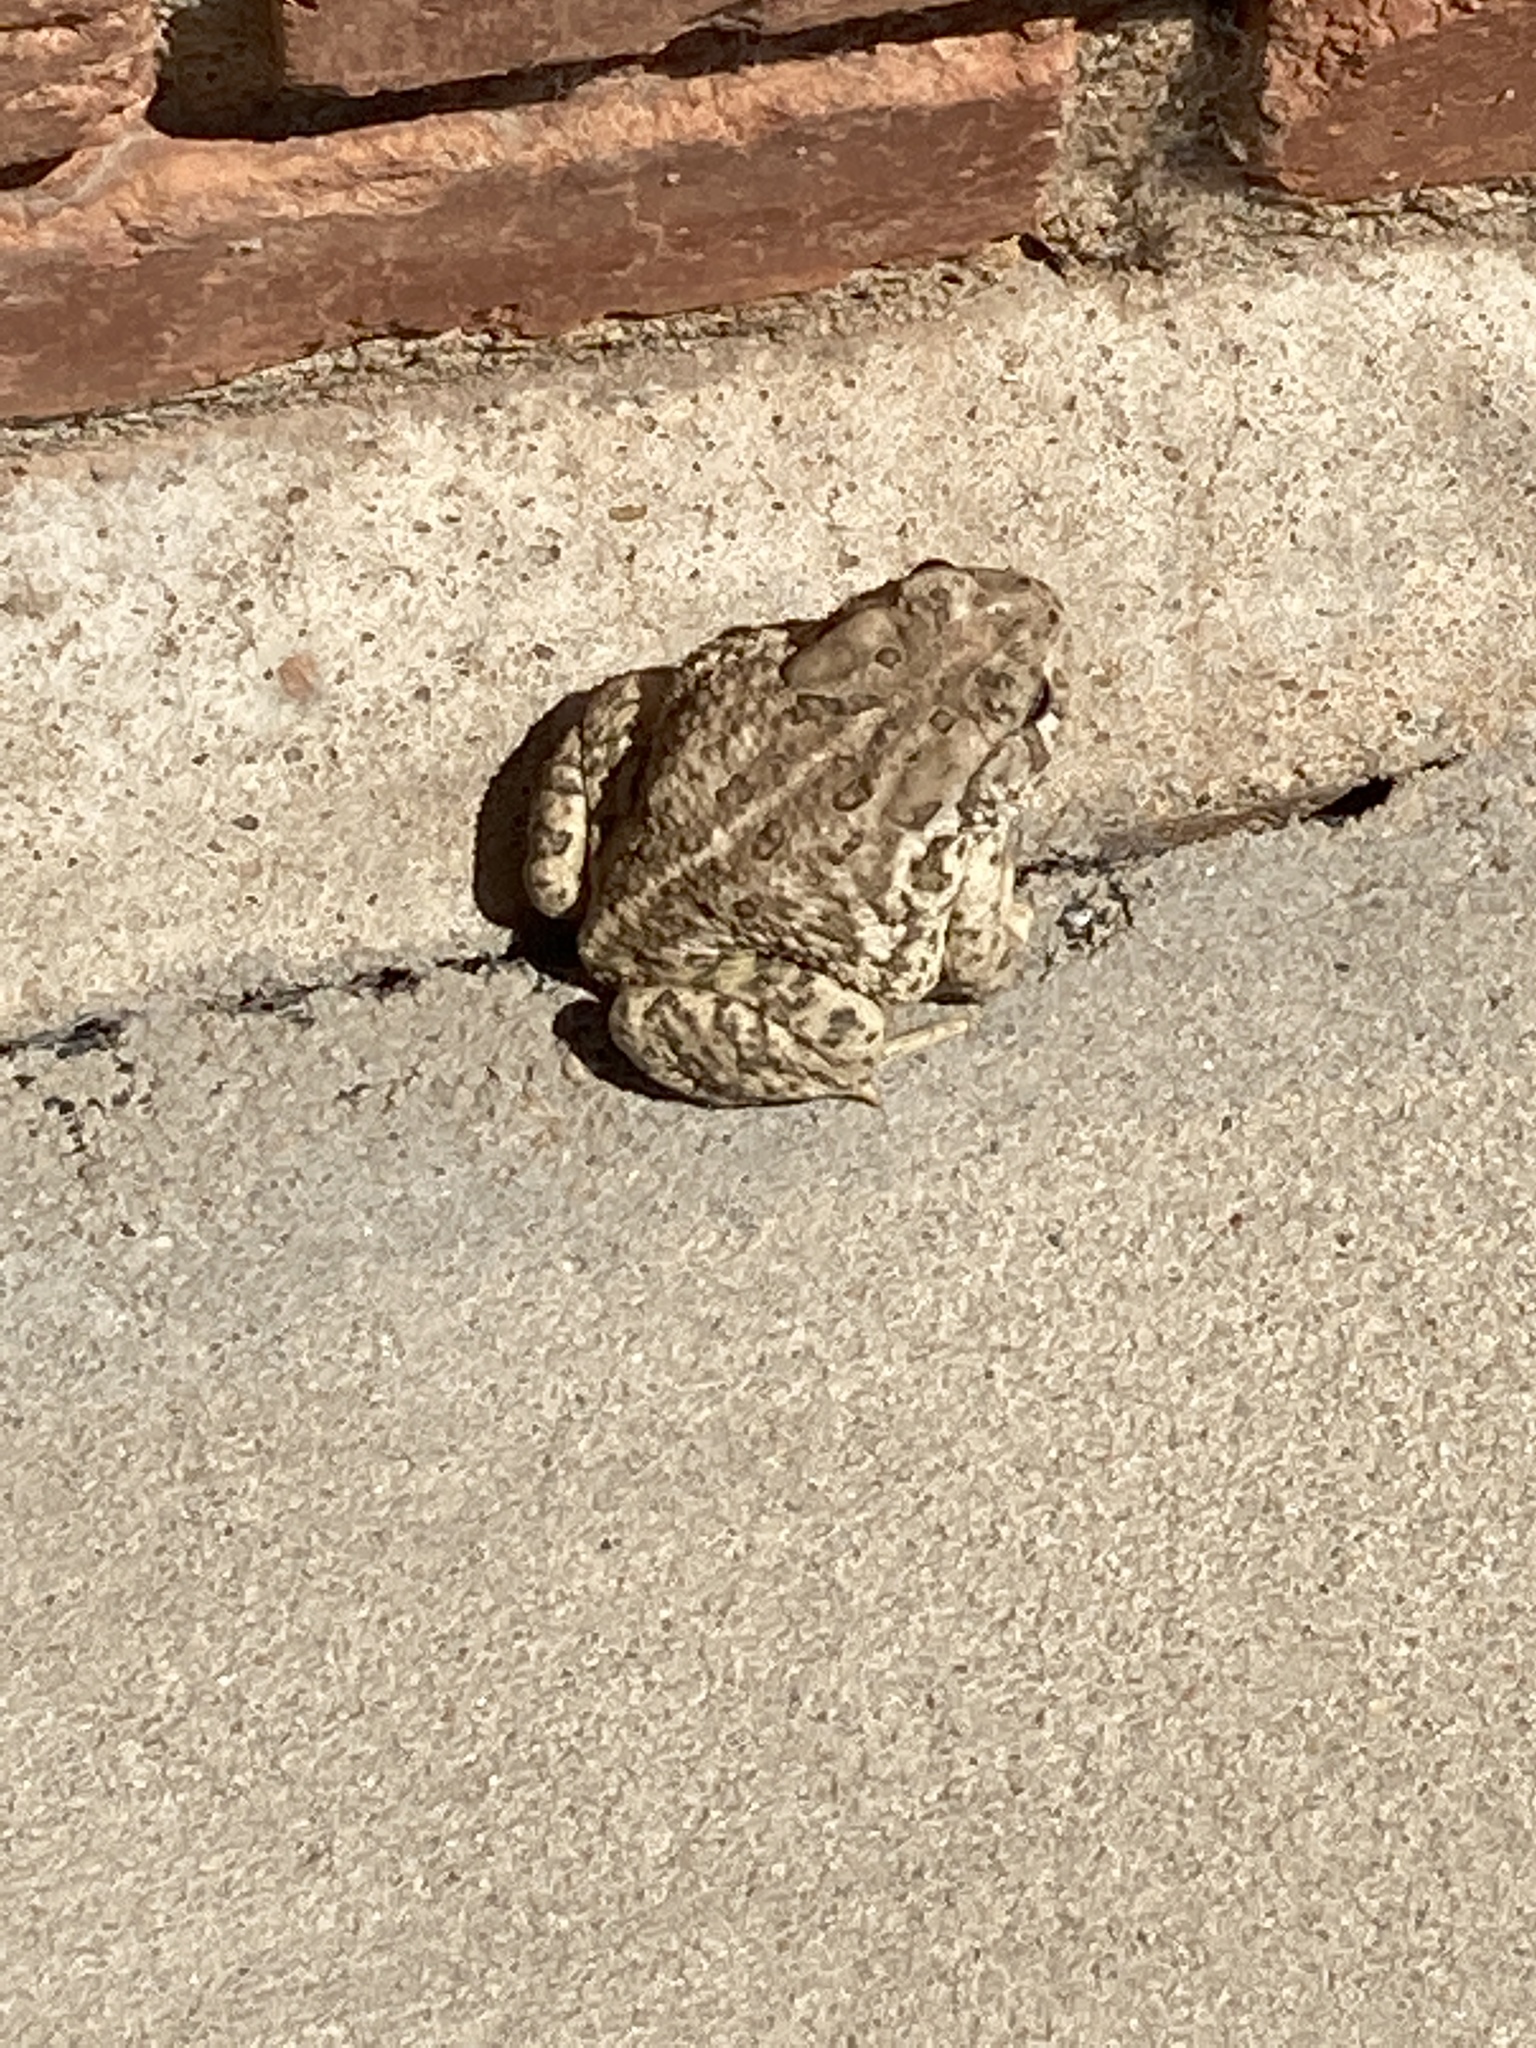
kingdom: Animalia
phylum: Chordata
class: Amphibia
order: Anura
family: Bufonidae
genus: Anaxyrus
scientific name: Anaxyrus woodhousii
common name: Woodhouse's toad
